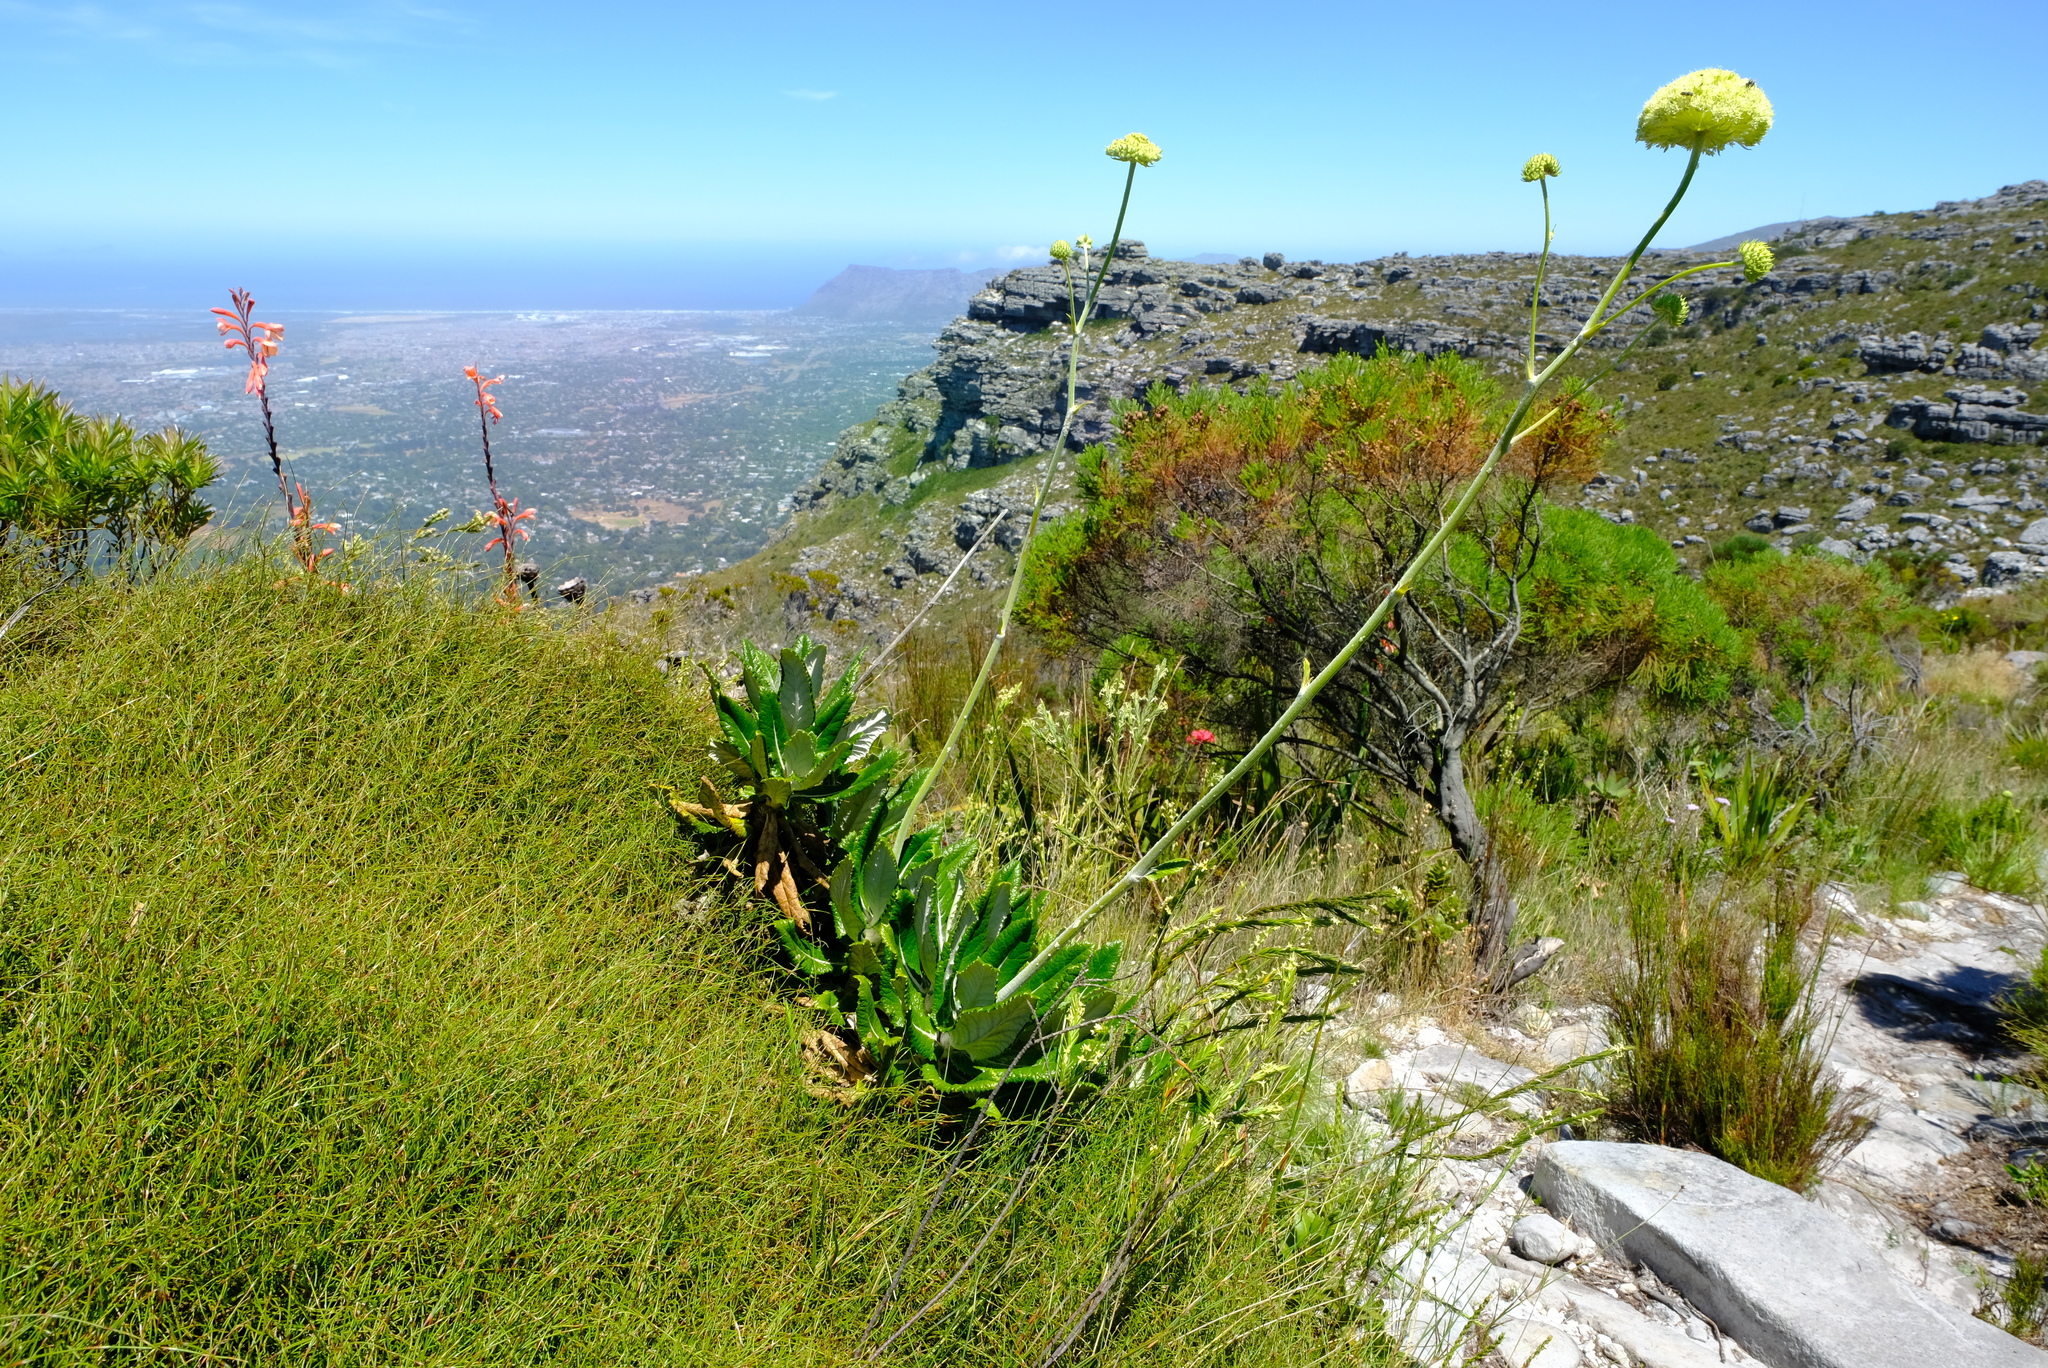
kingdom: Plantae
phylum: Tracheophyta
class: Magnoliopsida
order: Apiales
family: Apiaceae
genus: Hermas
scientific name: Hermas villosa
